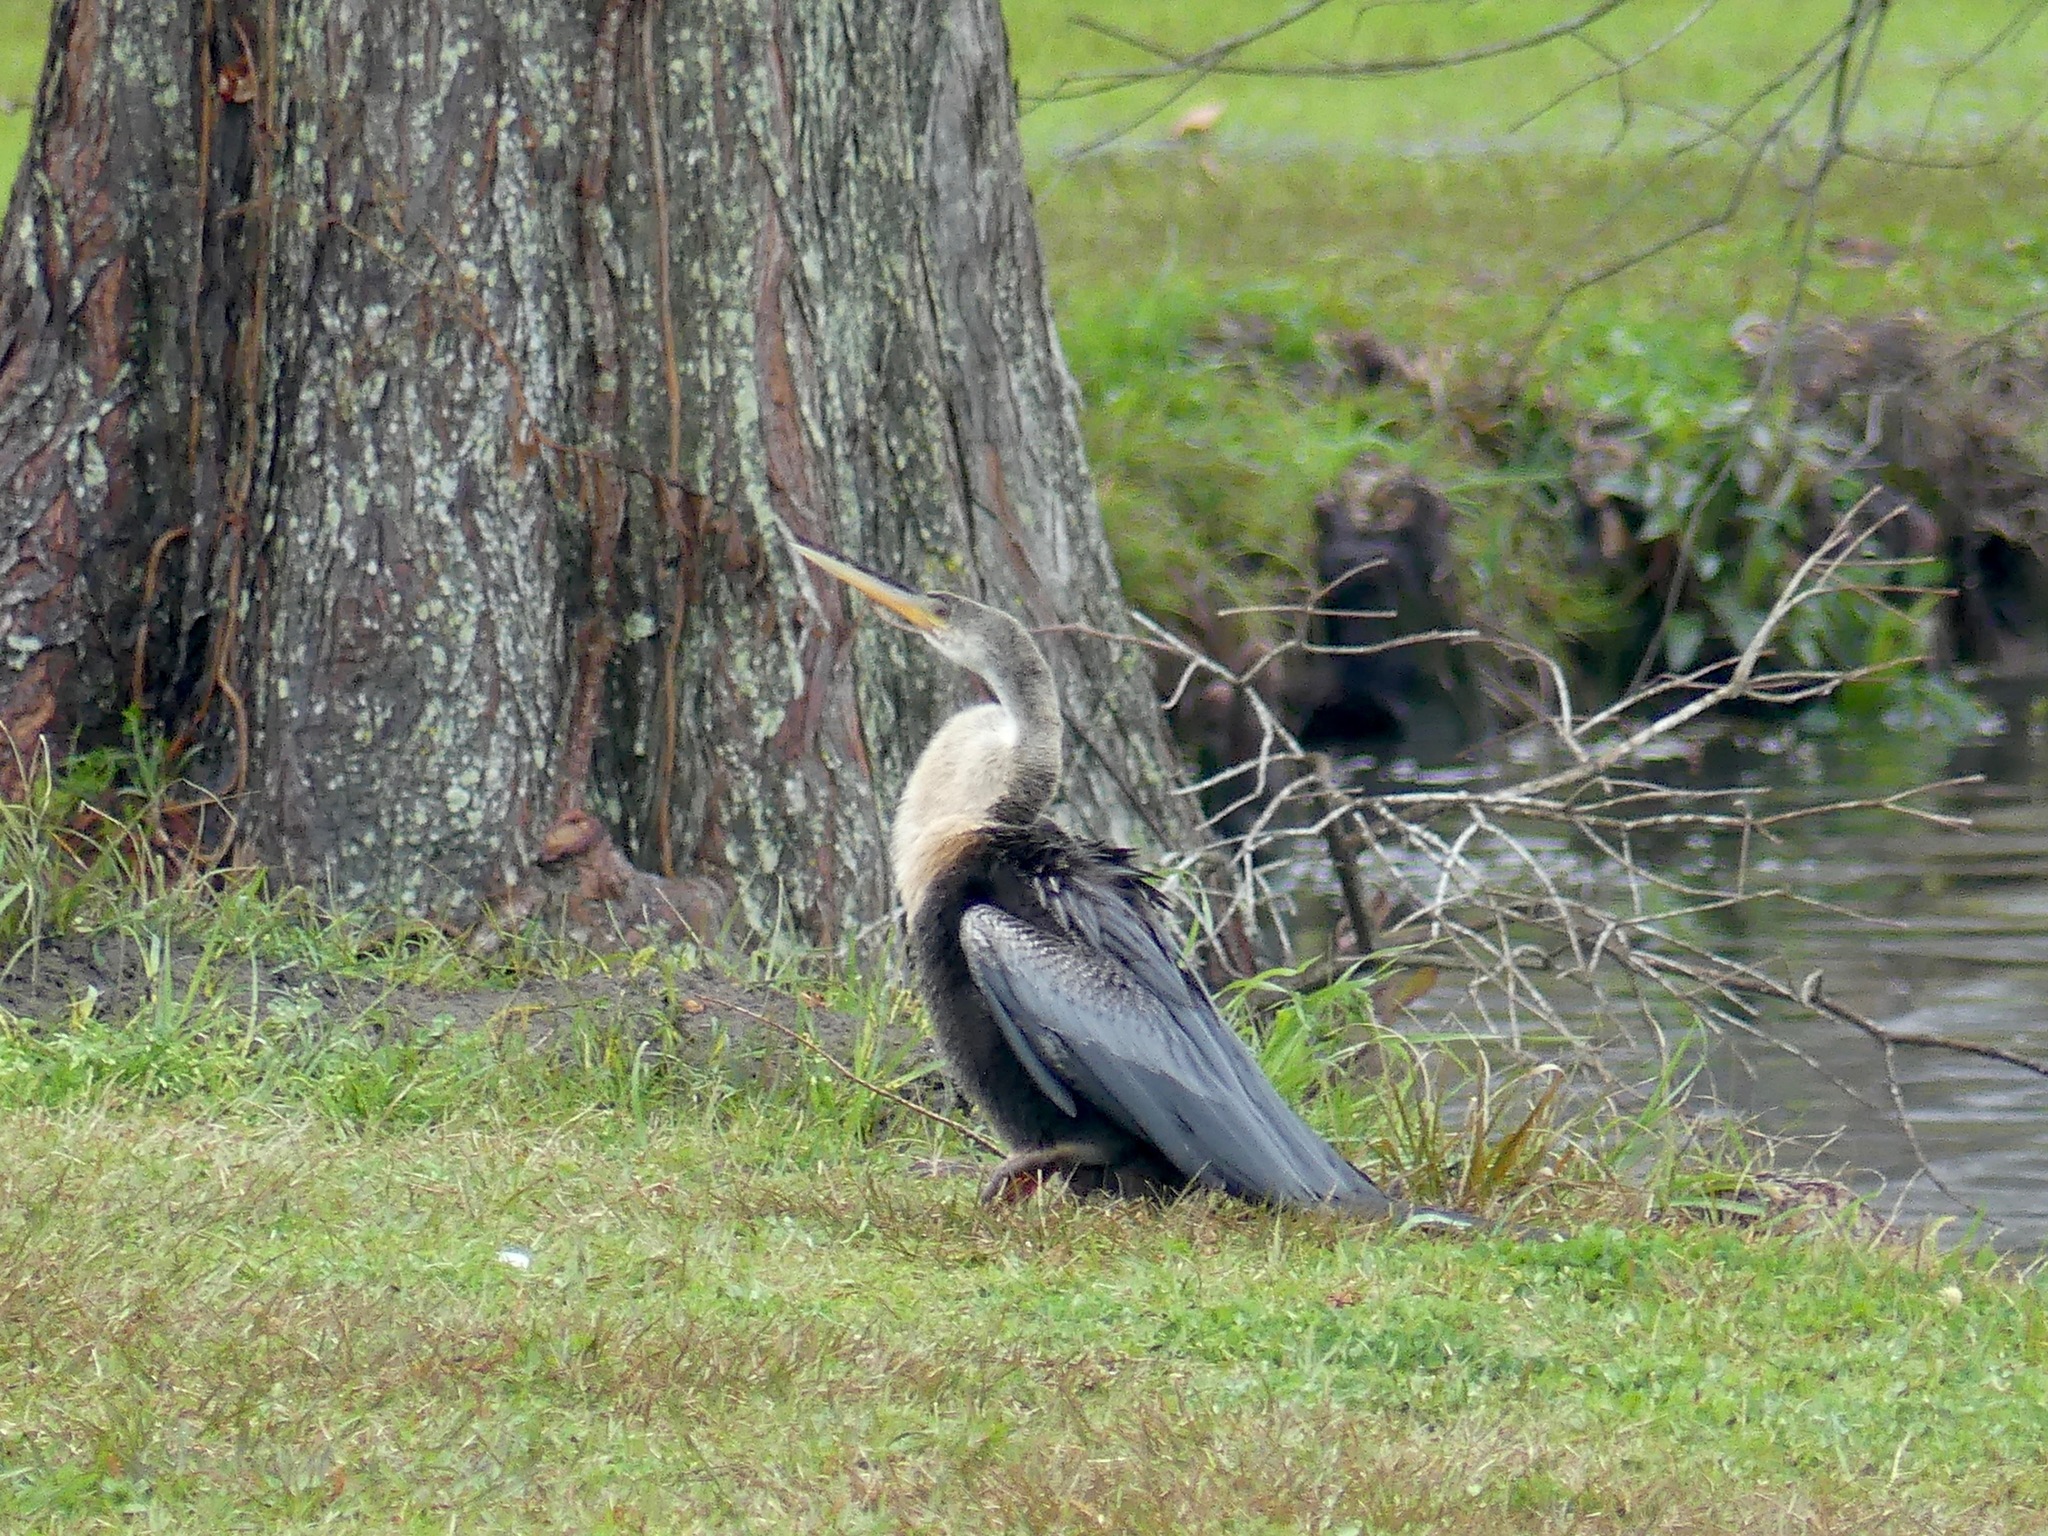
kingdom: Animalia
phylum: Chordata
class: Aves
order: Suliformes
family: Anhingidae
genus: Anhinga
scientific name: Anhinga anhinga
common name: Anhinga
